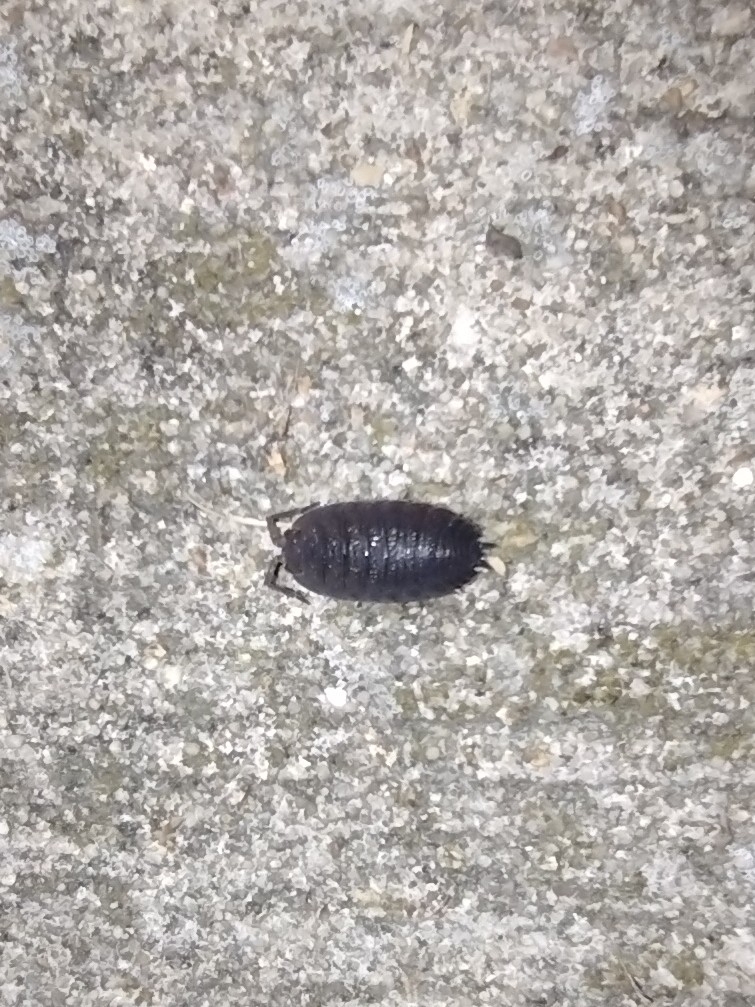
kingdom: Animalia
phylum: Arthropoda
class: Malacostraca
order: Isopoda
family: Porcellionidae
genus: Porcellio
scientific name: Porcellio scaber
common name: Common rough woodlouse
